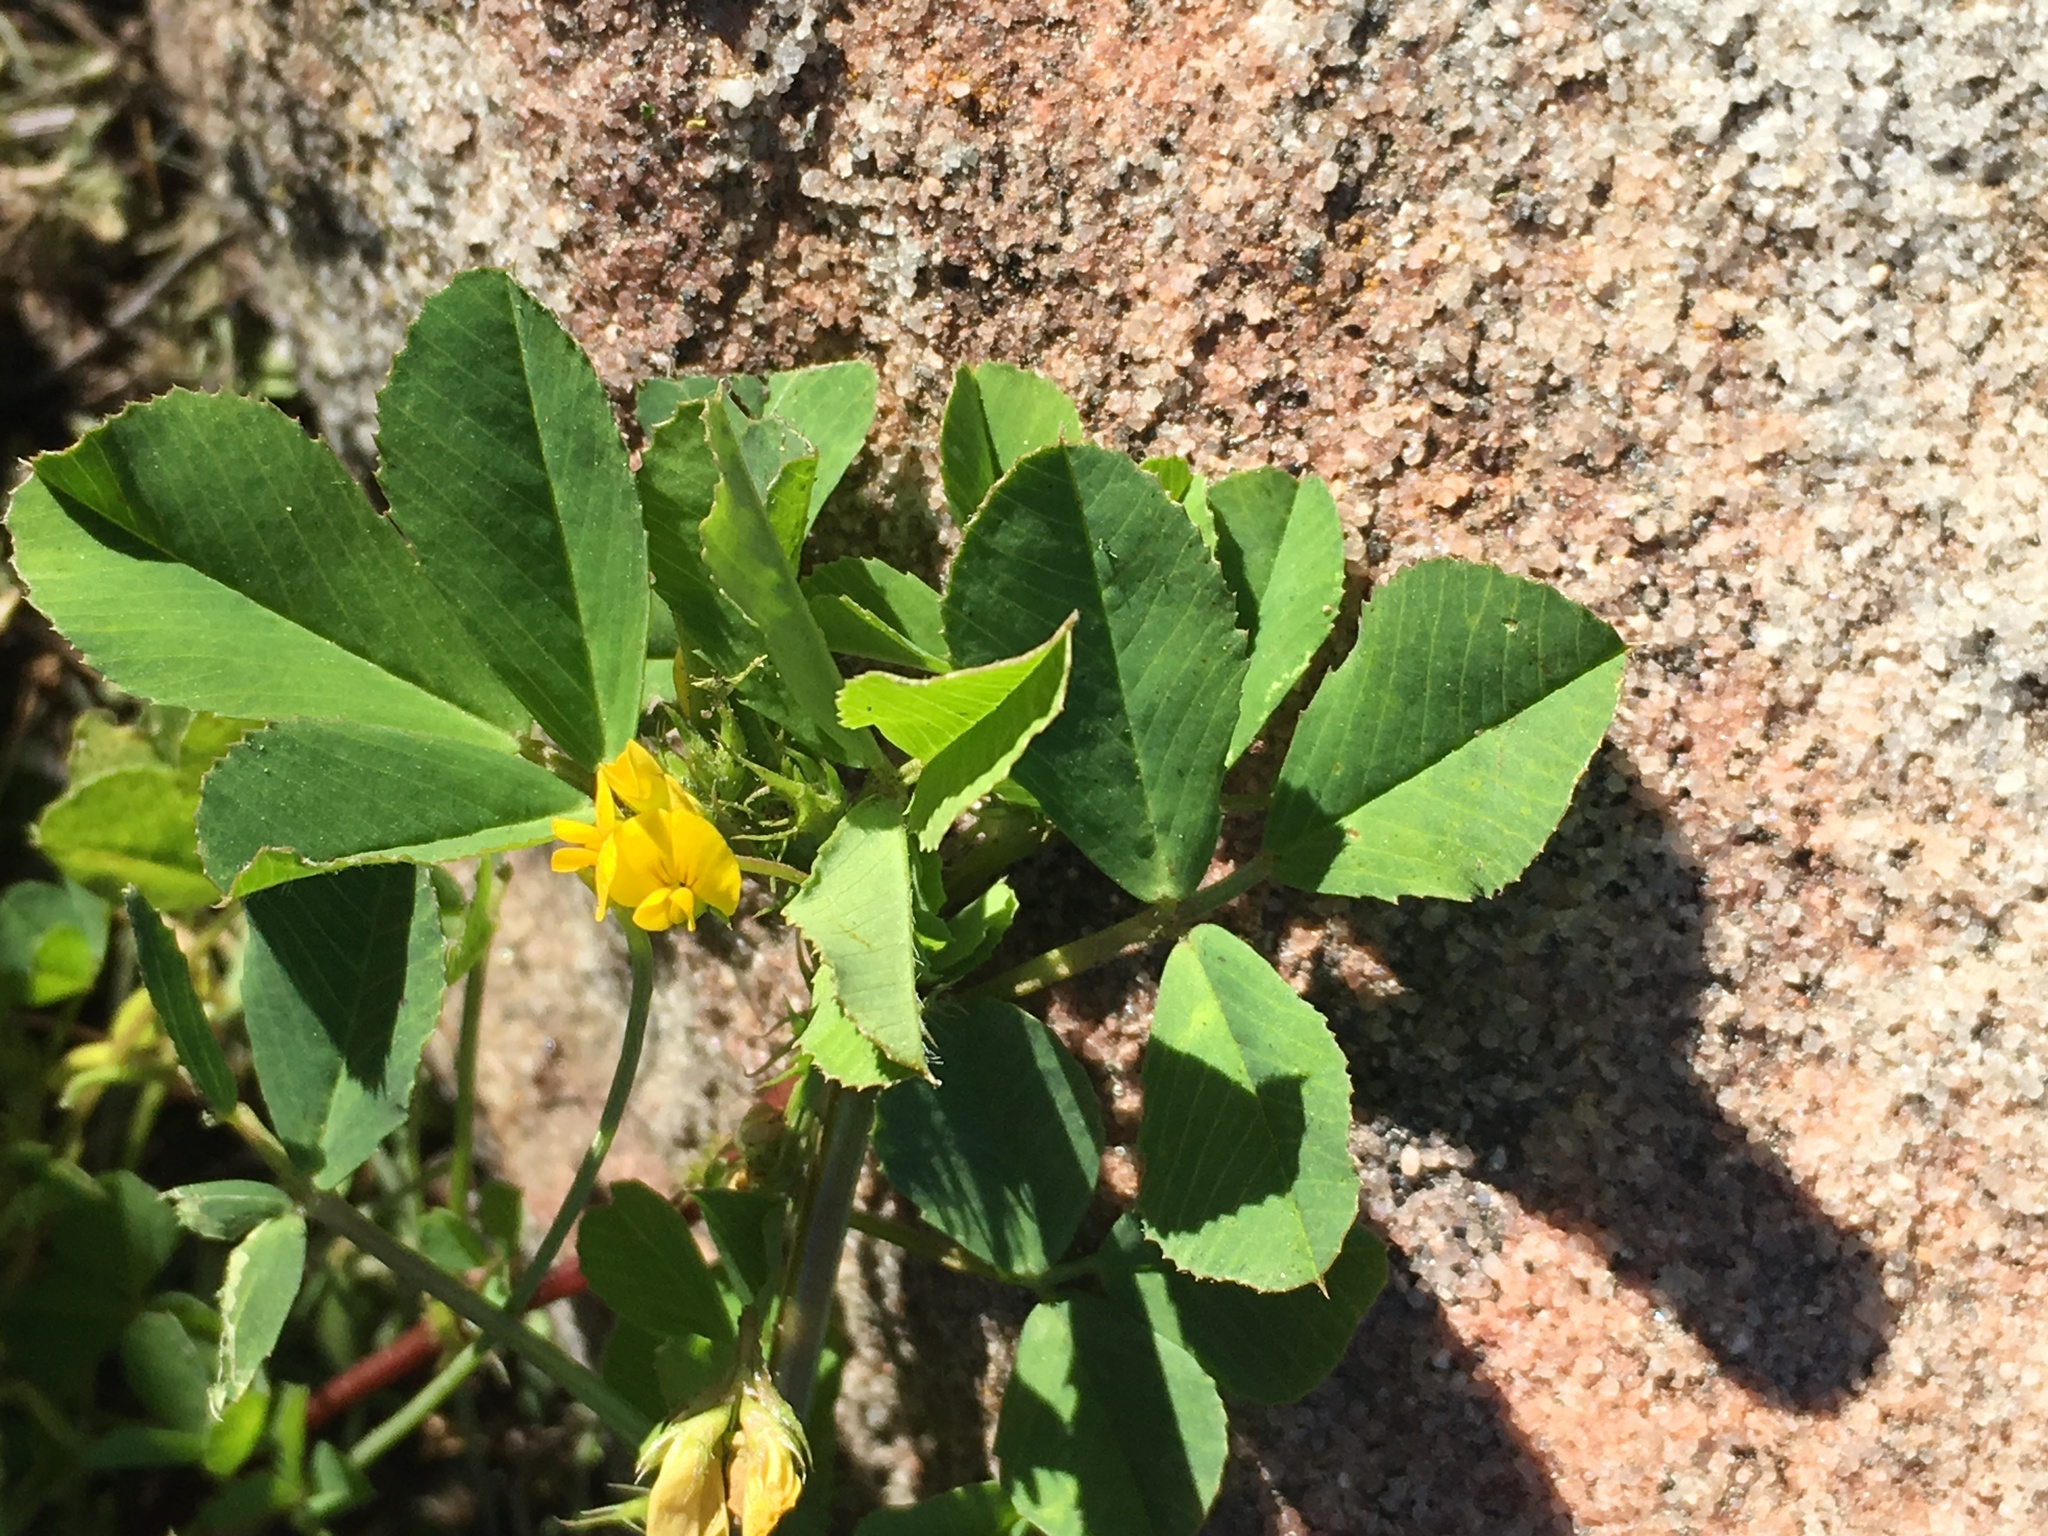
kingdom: Plantae
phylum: Tracheophyta
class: Magnoliopsida
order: Fabales
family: Fabaceae
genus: Medicago
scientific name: Medicago polymorpha
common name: Burclover
